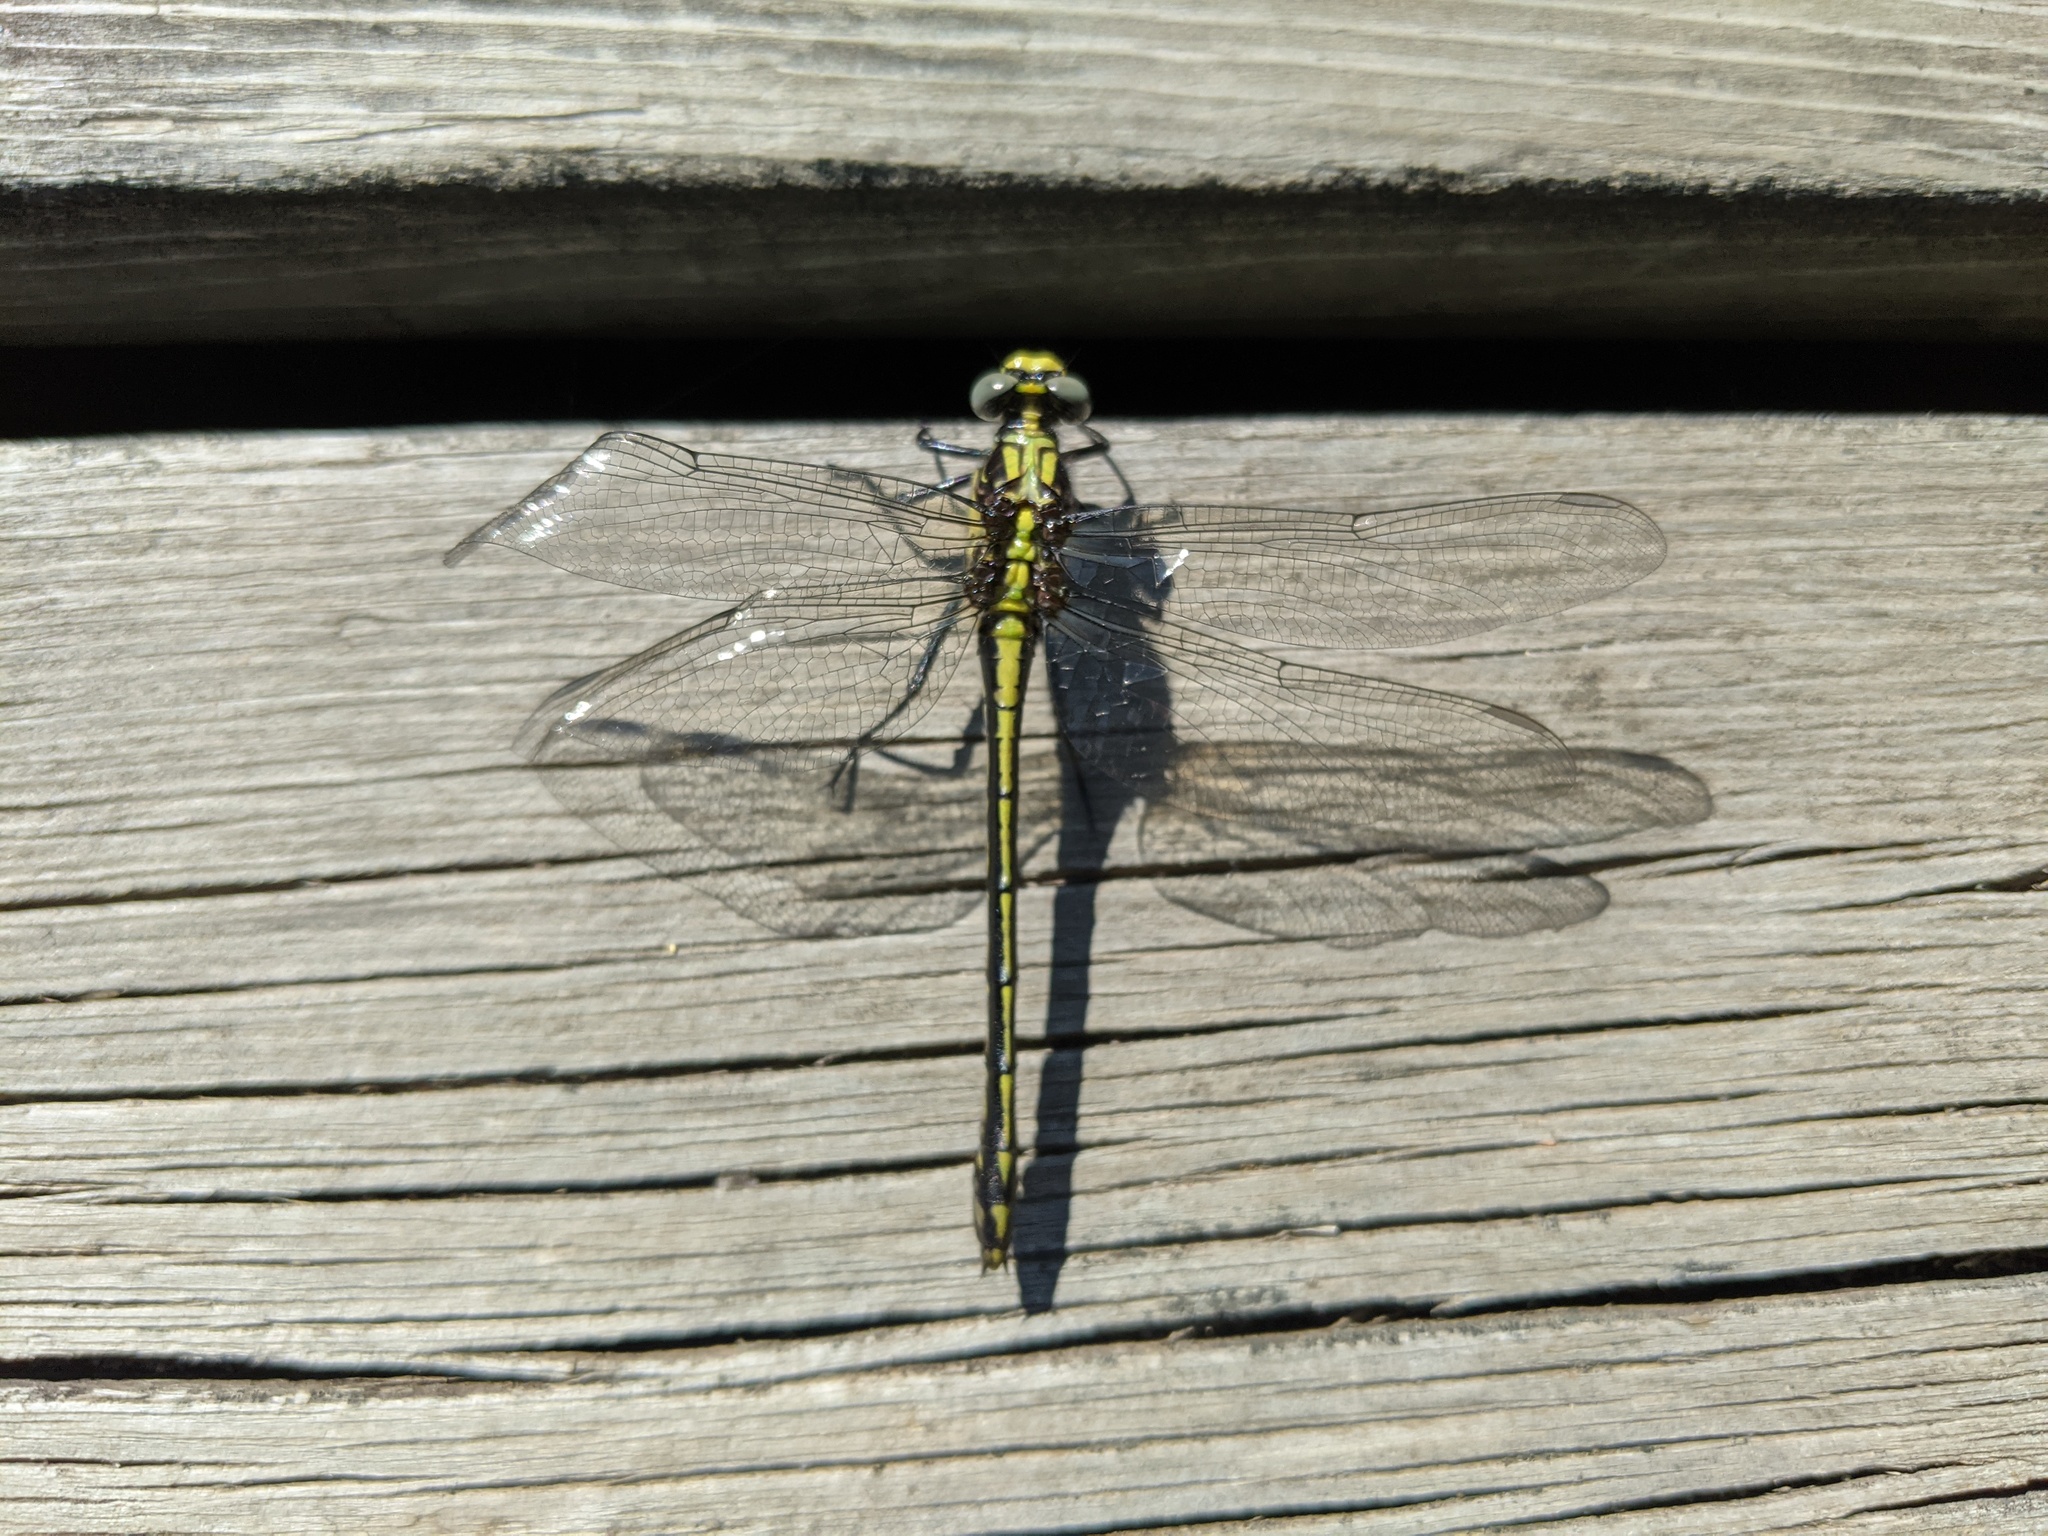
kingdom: Animalia
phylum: Arthropoda
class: Insecta
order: Odonata
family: Gomphidae
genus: Dromogomphus
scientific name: Dromogomphus spinosus
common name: Black-shouldered spinyleg
